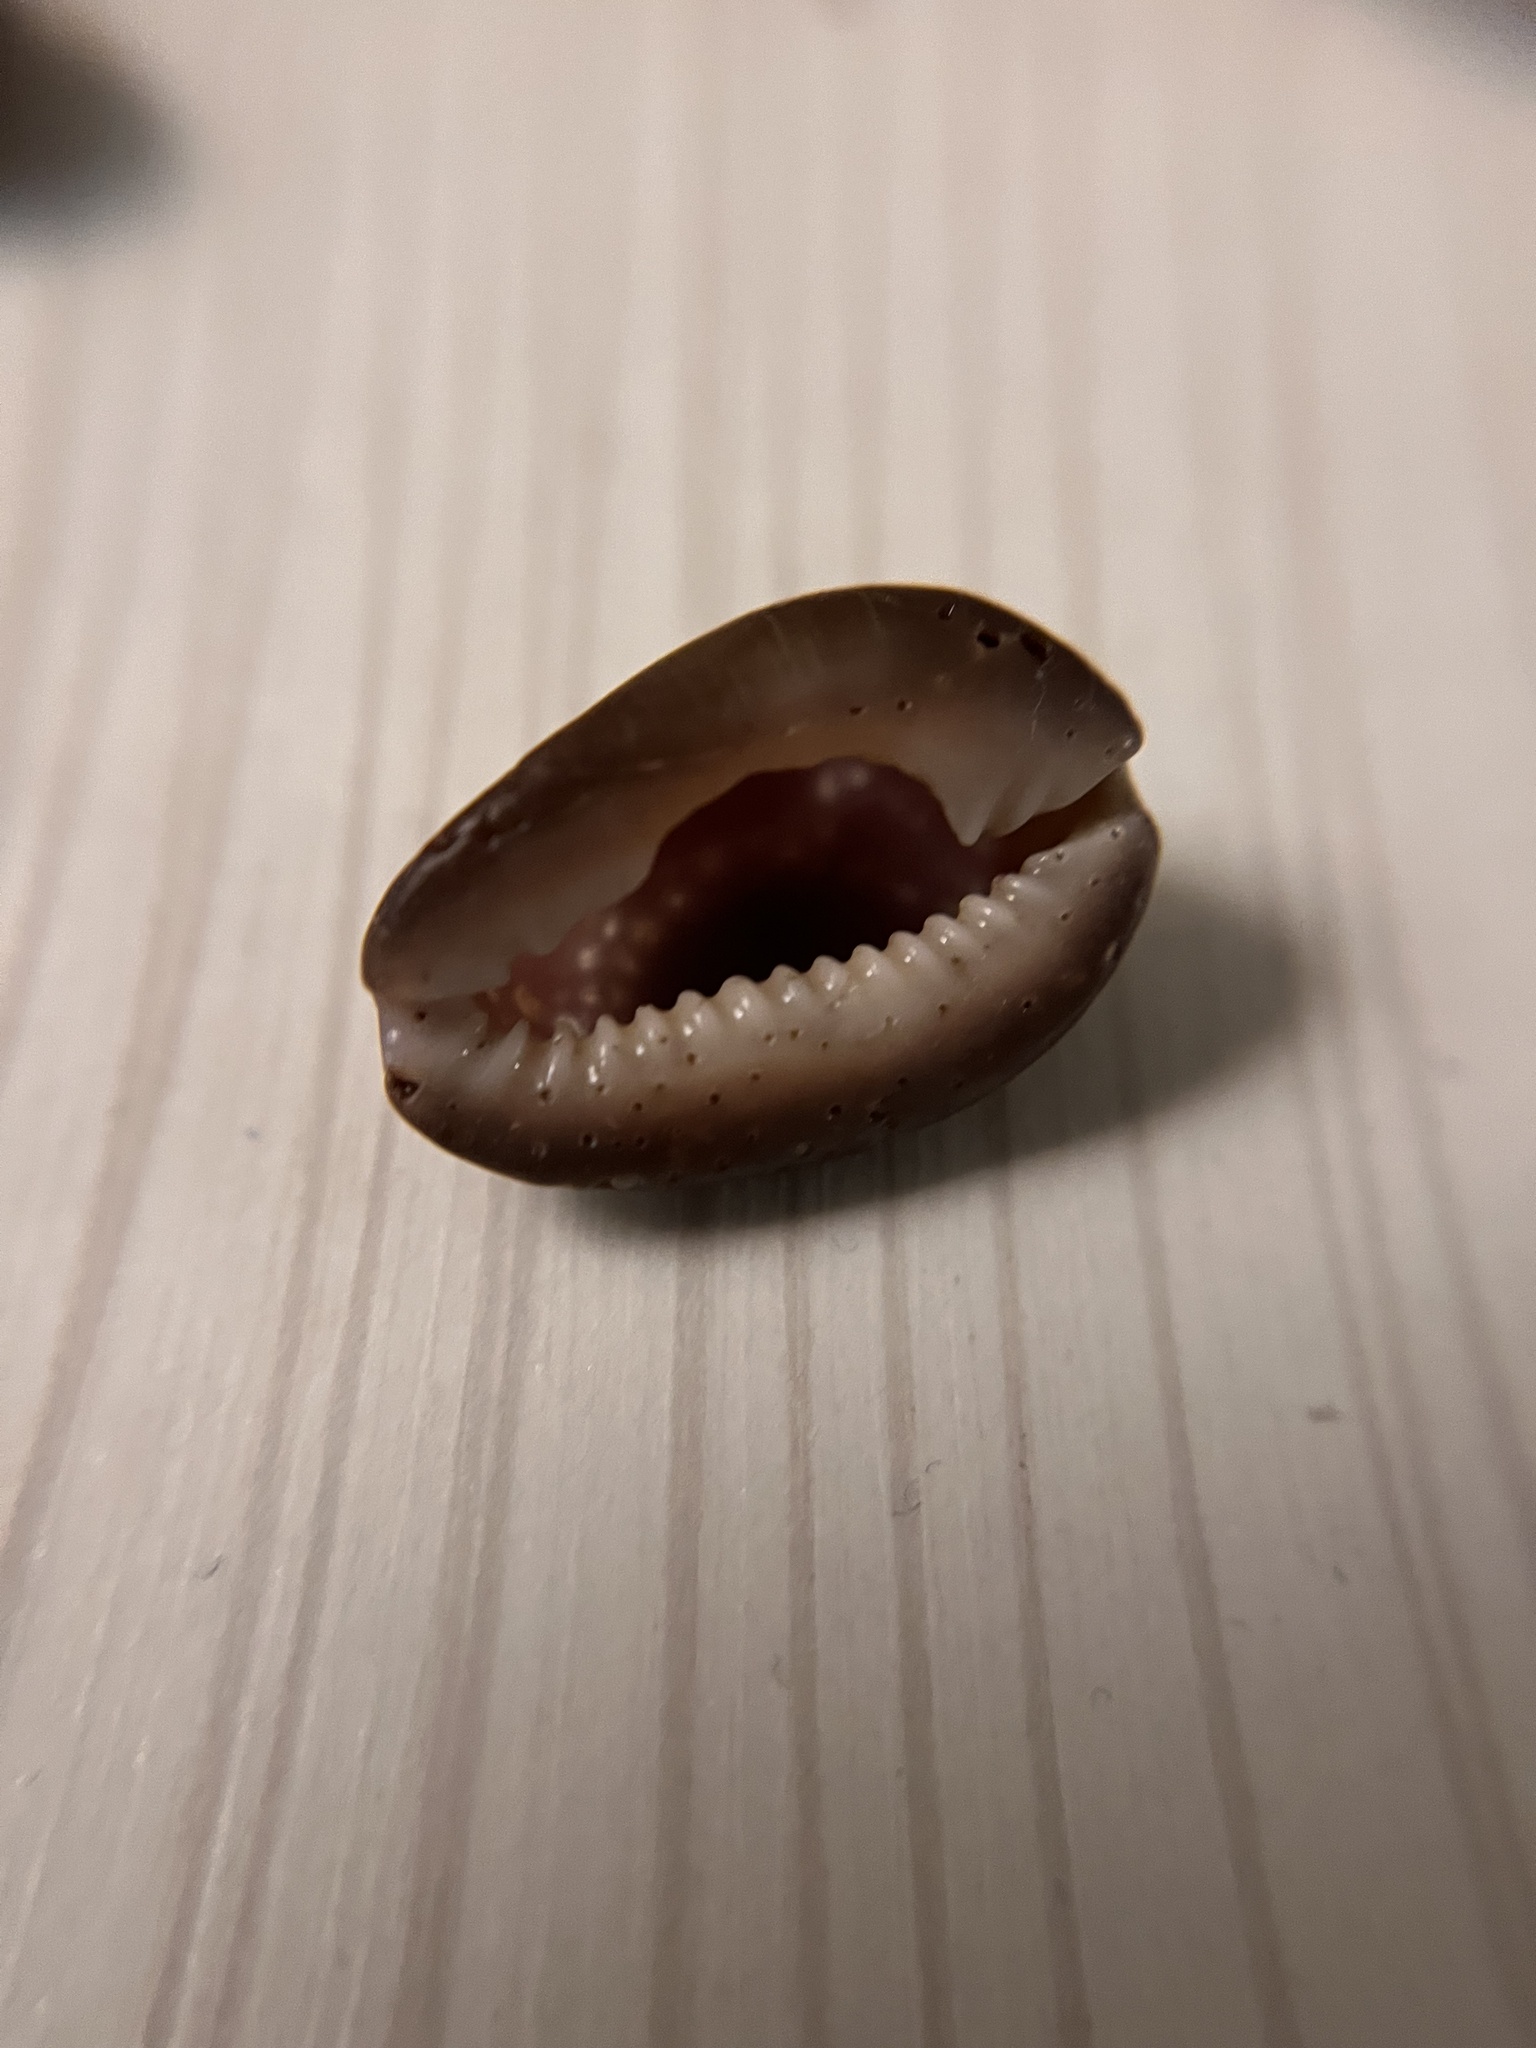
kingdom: Animalia
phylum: Mollusca
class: Gastropoda
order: Littorinimorpha
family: Cypraeidae
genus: Monetaria
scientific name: Monetaria caputophidii
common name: Snake's head cowry
